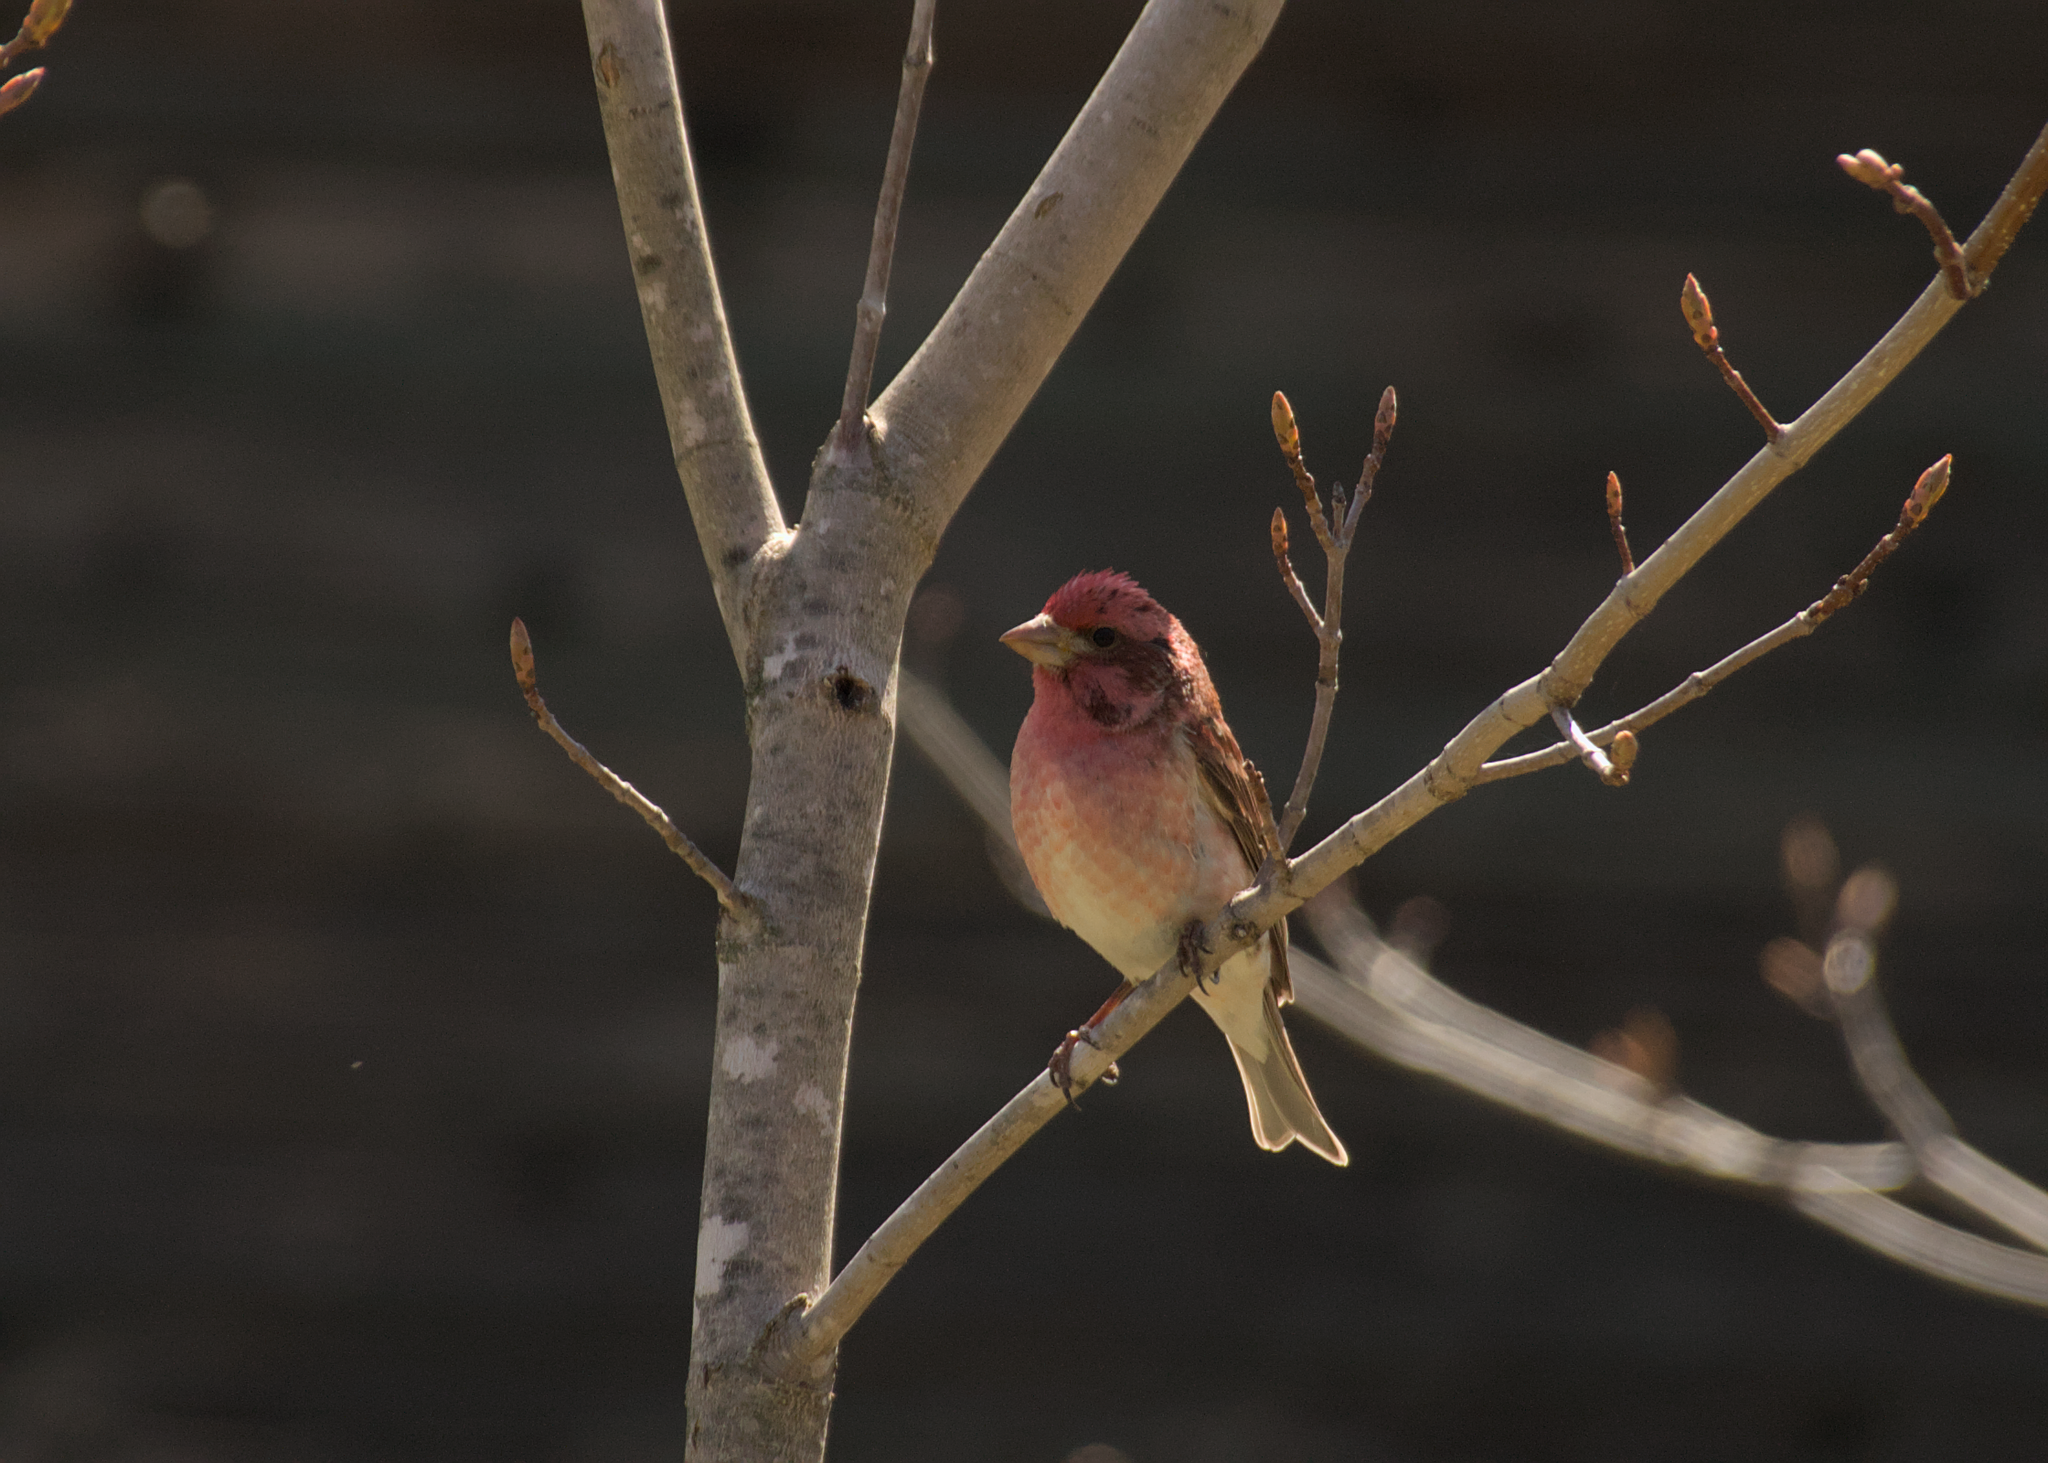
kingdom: Animalia
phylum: Chordata
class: Aves
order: Passeriformes
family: Fringillidae
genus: Haemorhous
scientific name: Haemorhous purpureus
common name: Purple finch
